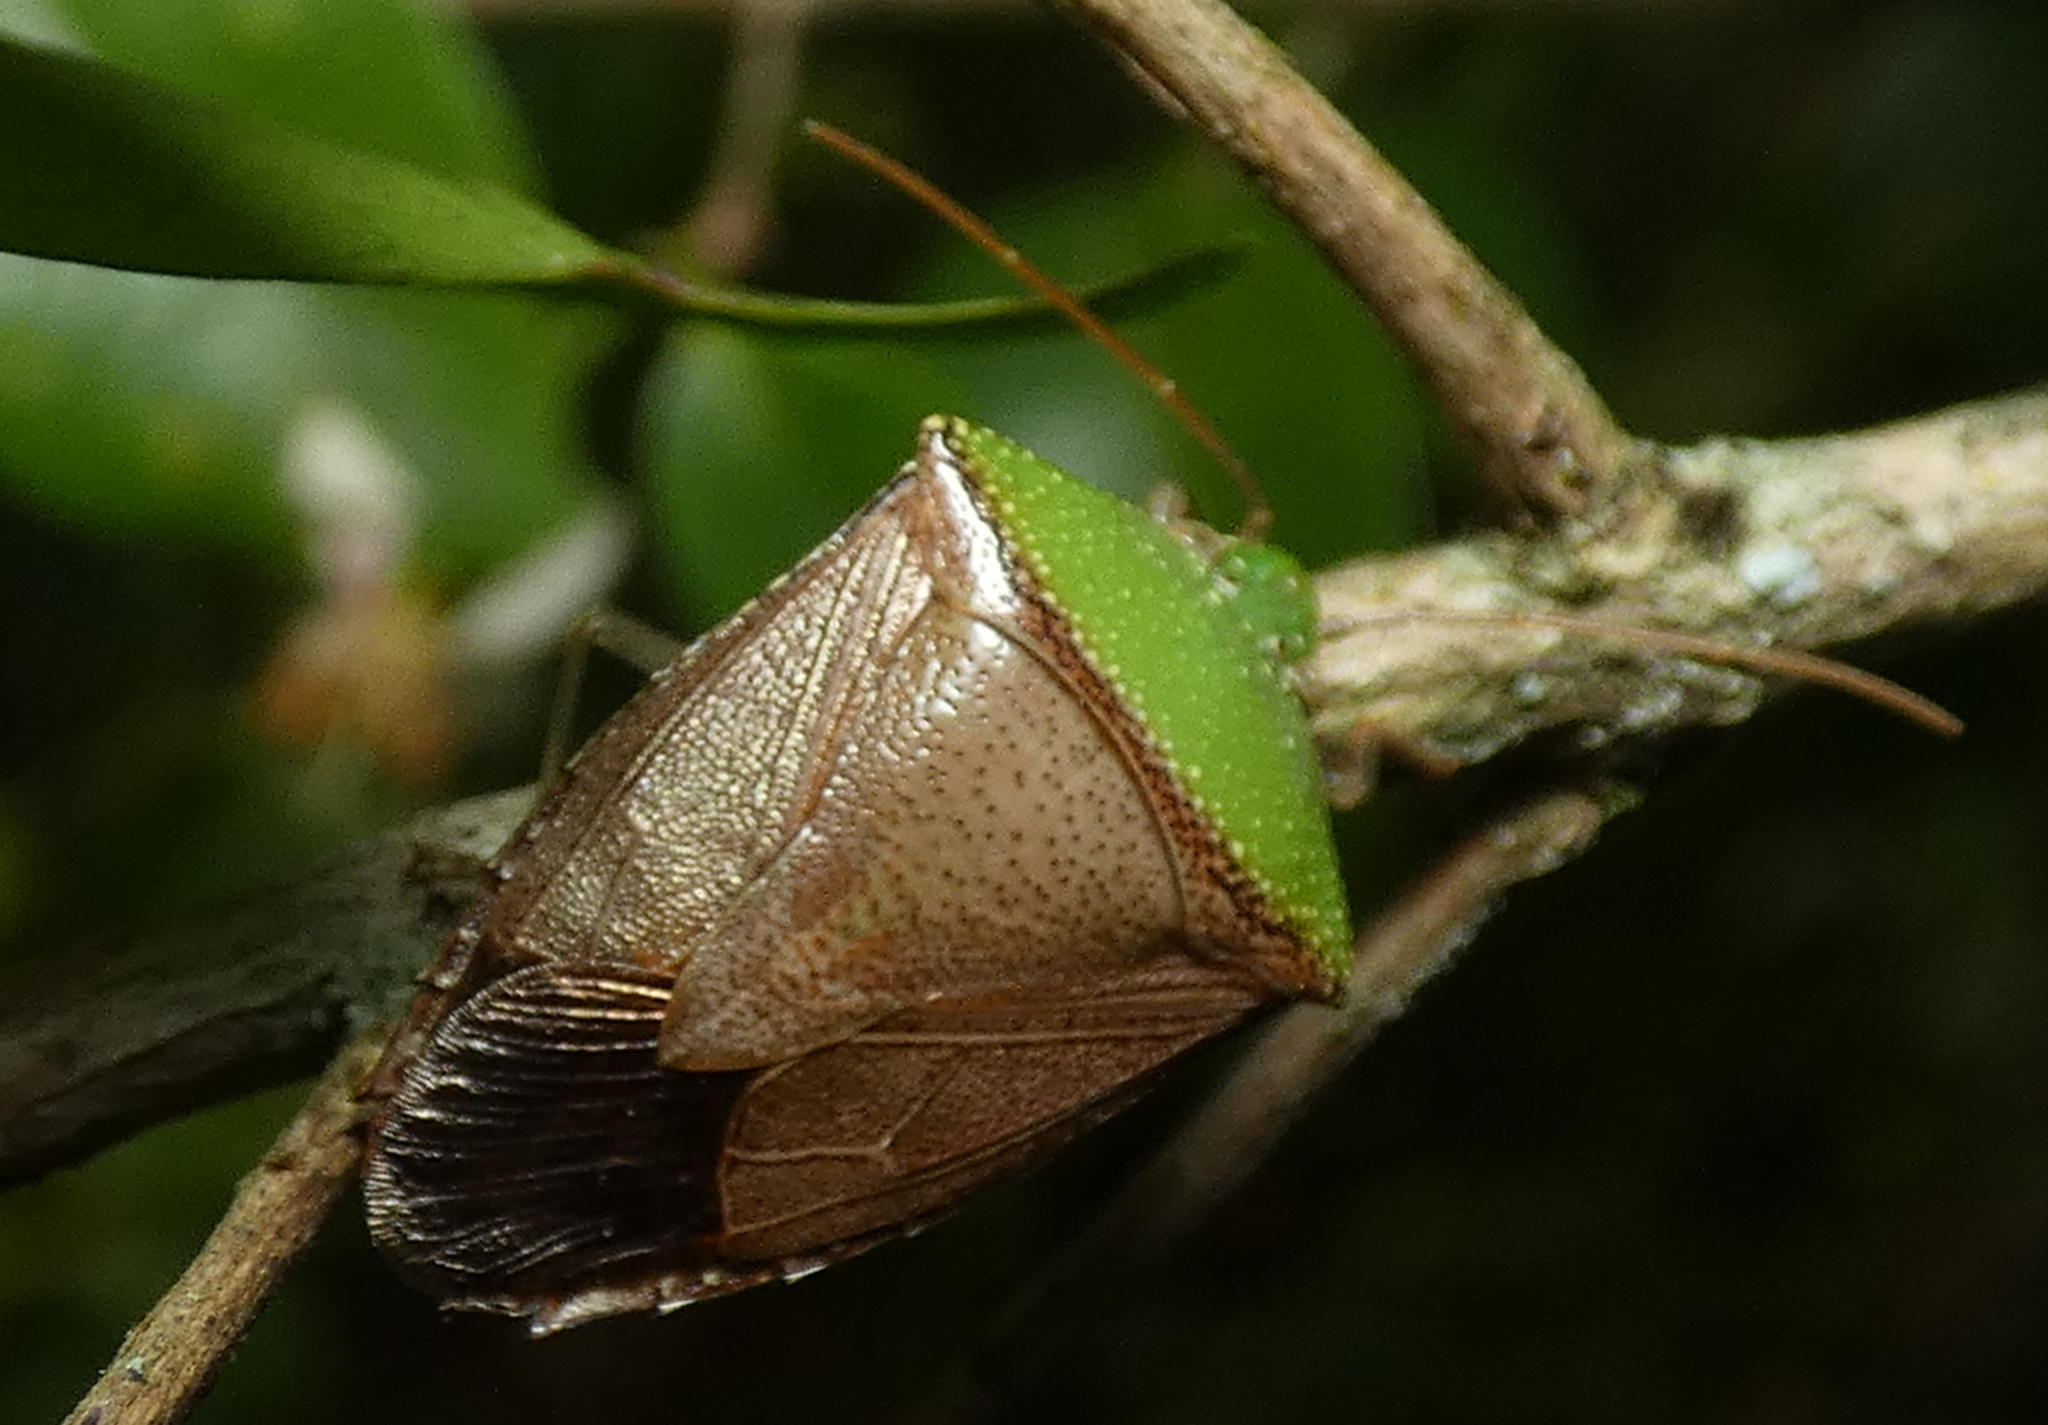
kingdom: Animalia
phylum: Arthropoda
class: Insecta
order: Hemiptera
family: Pentatomidae
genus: Hypoxys
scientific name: Hypoxys triangularis
